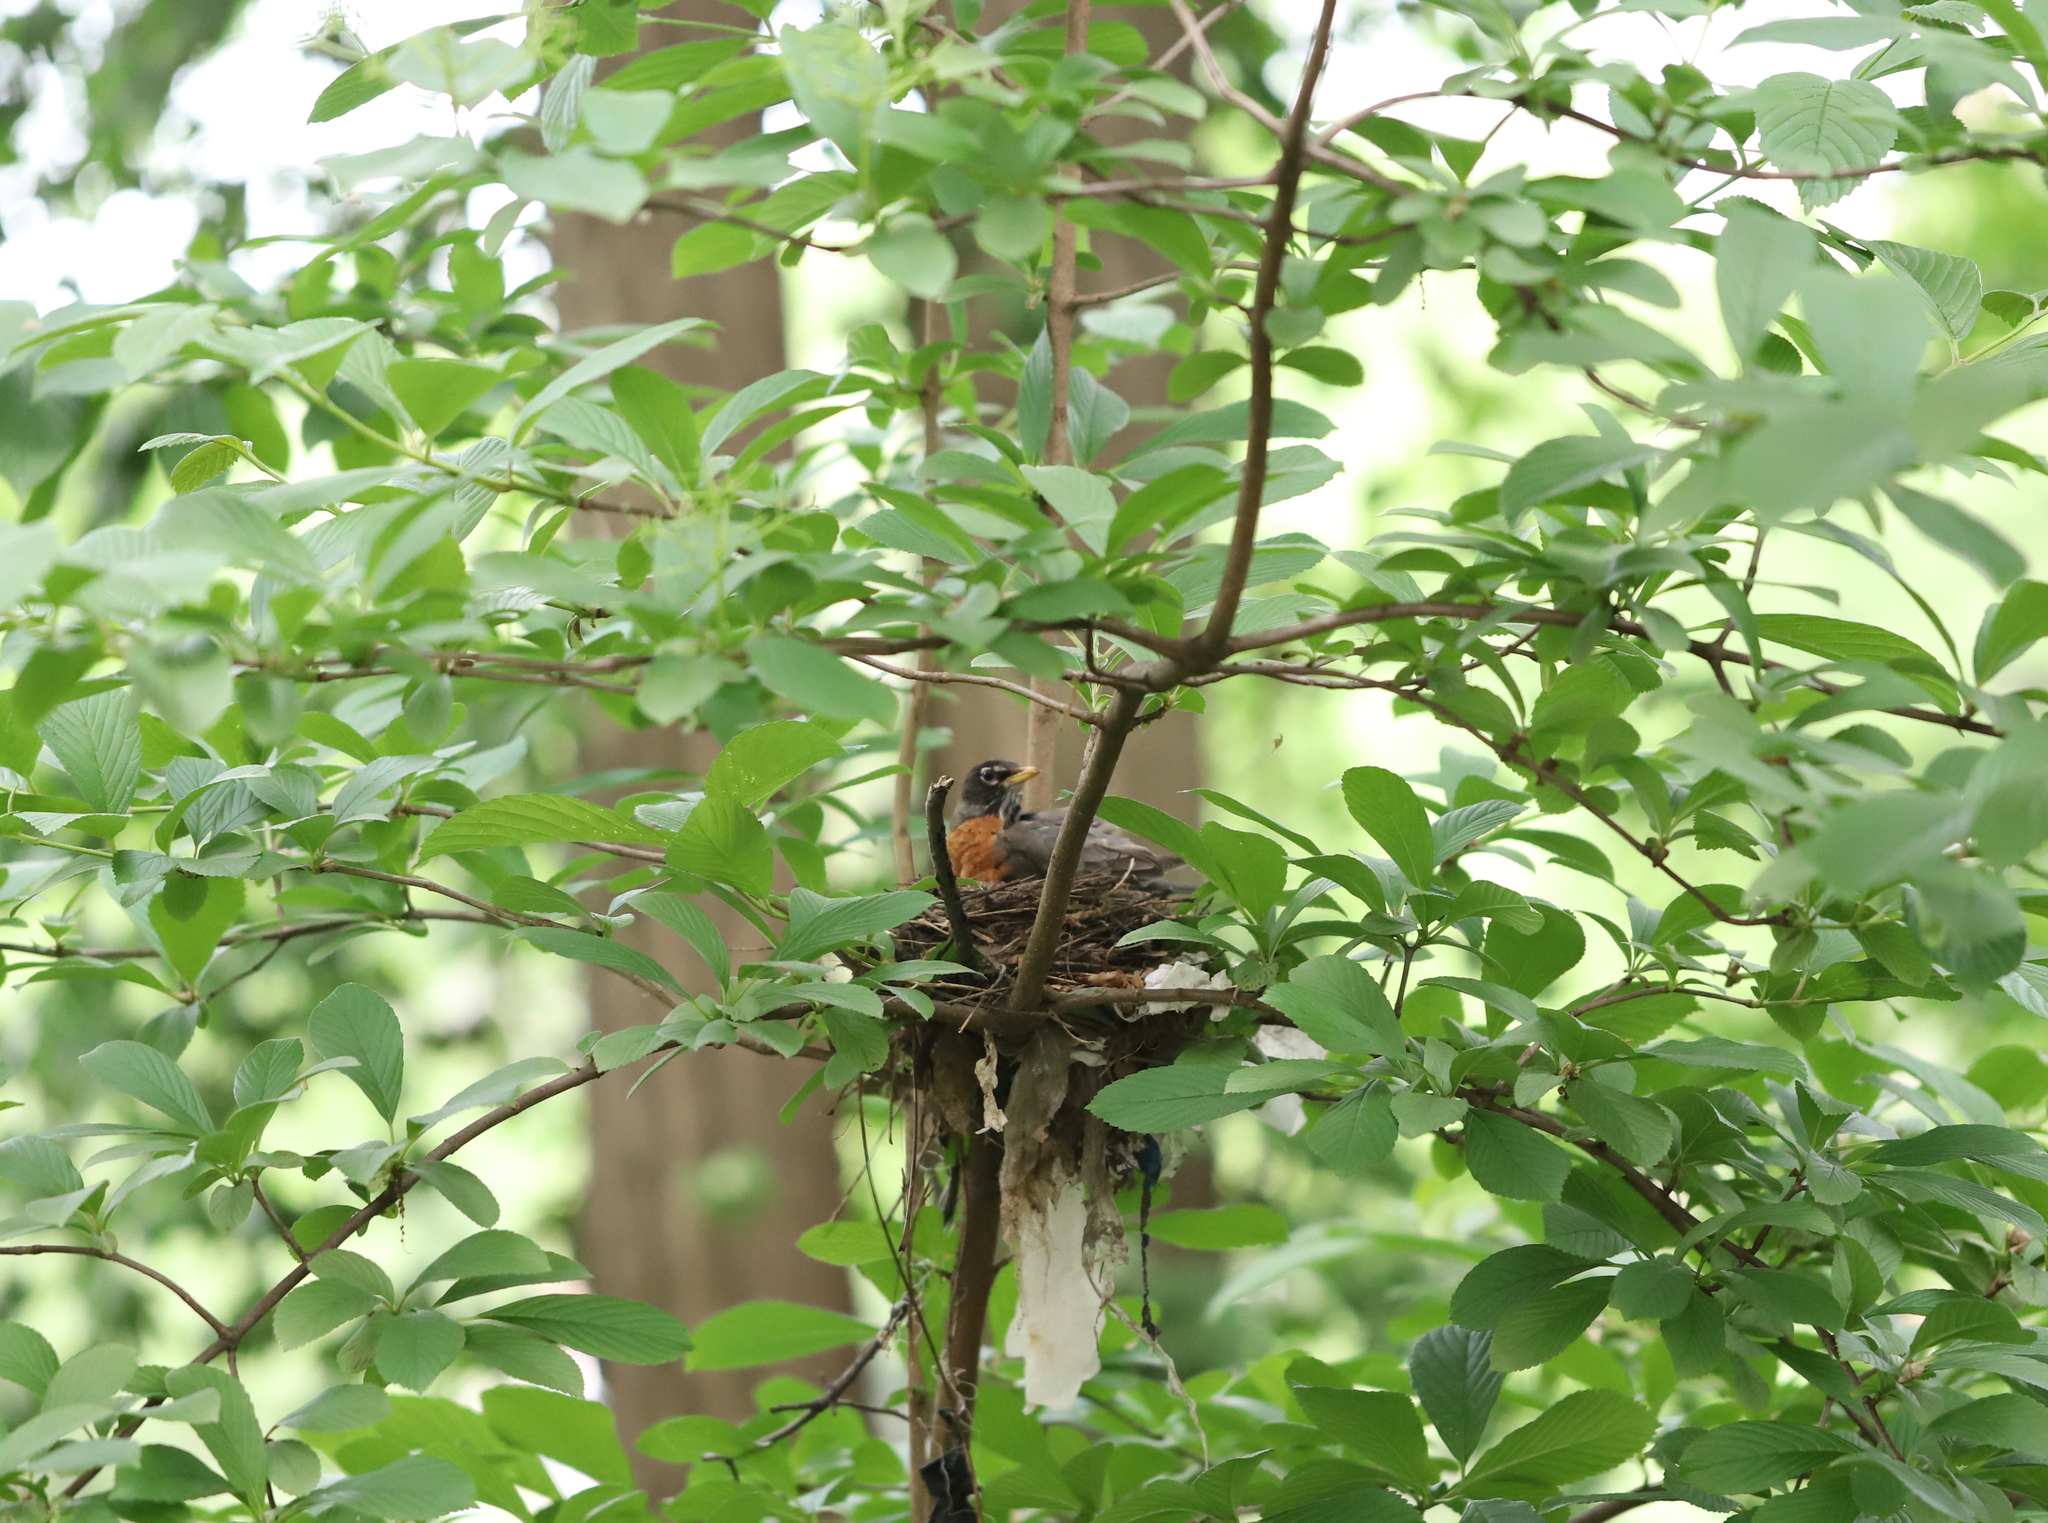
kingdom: Animalia
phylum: Chordata
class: Aves
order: Passeriformes
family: Turdidae
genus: Turdus
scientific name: Turdus migratorius
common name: American robin
